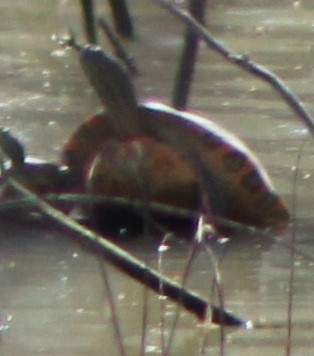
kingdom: Animalia
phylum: Chordata
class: Testudines
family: Emydidae
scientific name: Emydidae
